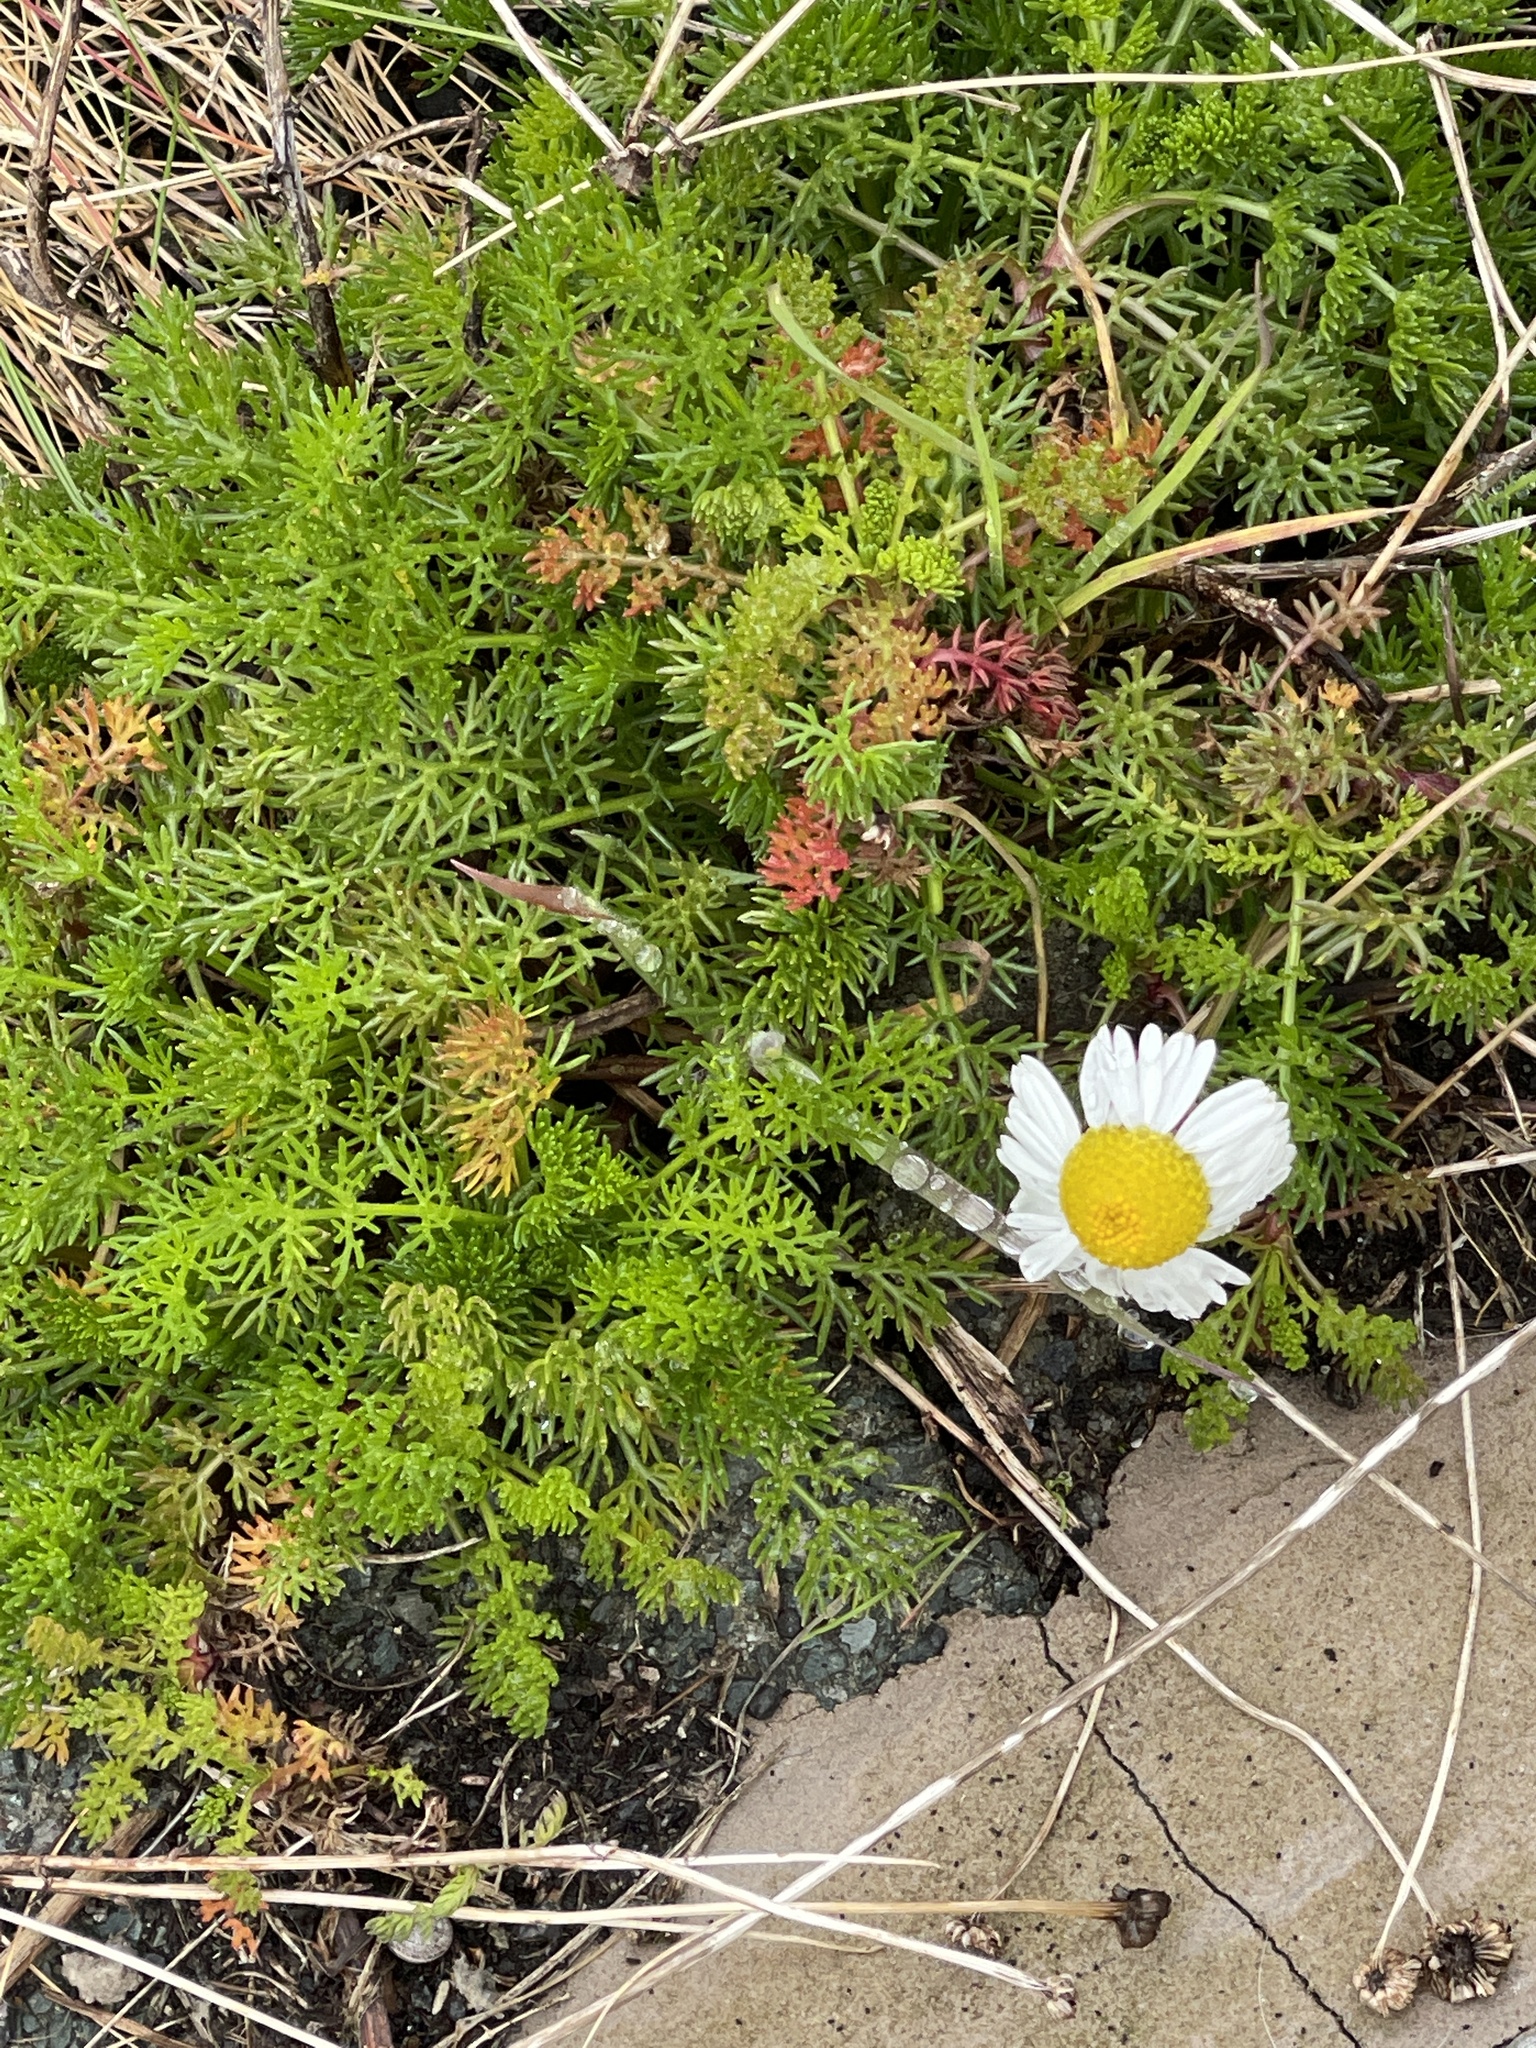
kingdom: Plantae
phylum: Tracheophyta
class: Magnoliopsida
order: Asterales
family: Asteraceae
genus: Tripleurospermum
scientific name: Tripleurospermum maritimum
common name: Sea mayweed
